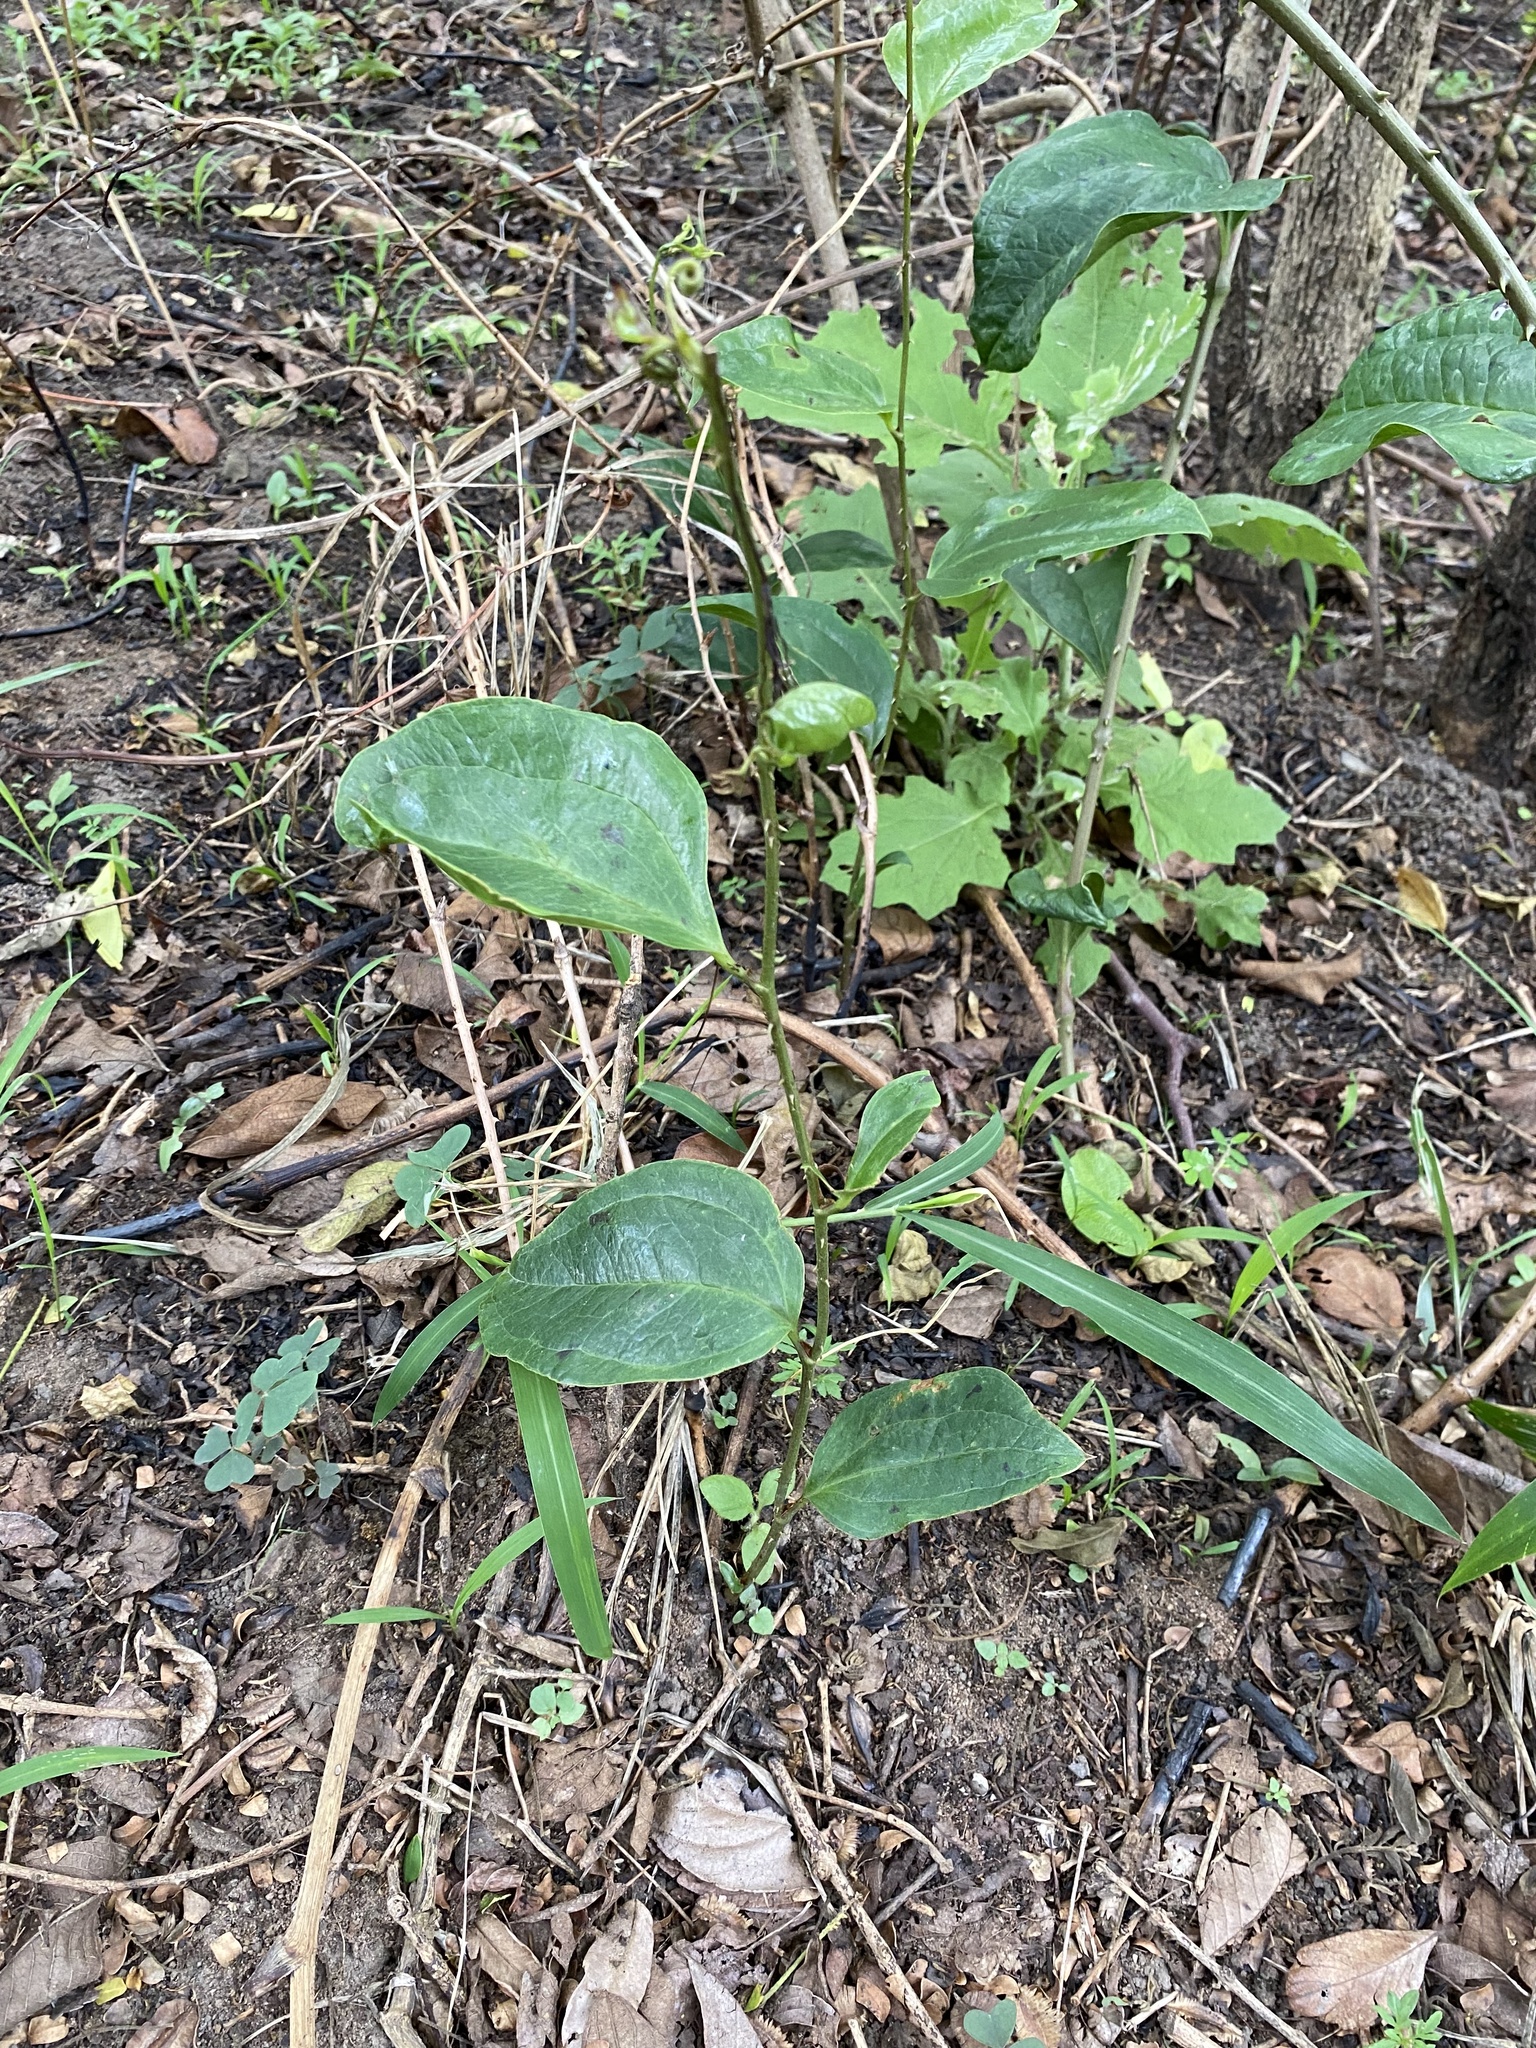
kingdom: Plantae
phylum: Tracheophyta
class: Liliopsida
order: Liliales
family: Smilacaceae
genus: Smilax
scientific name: Smilax anceps
